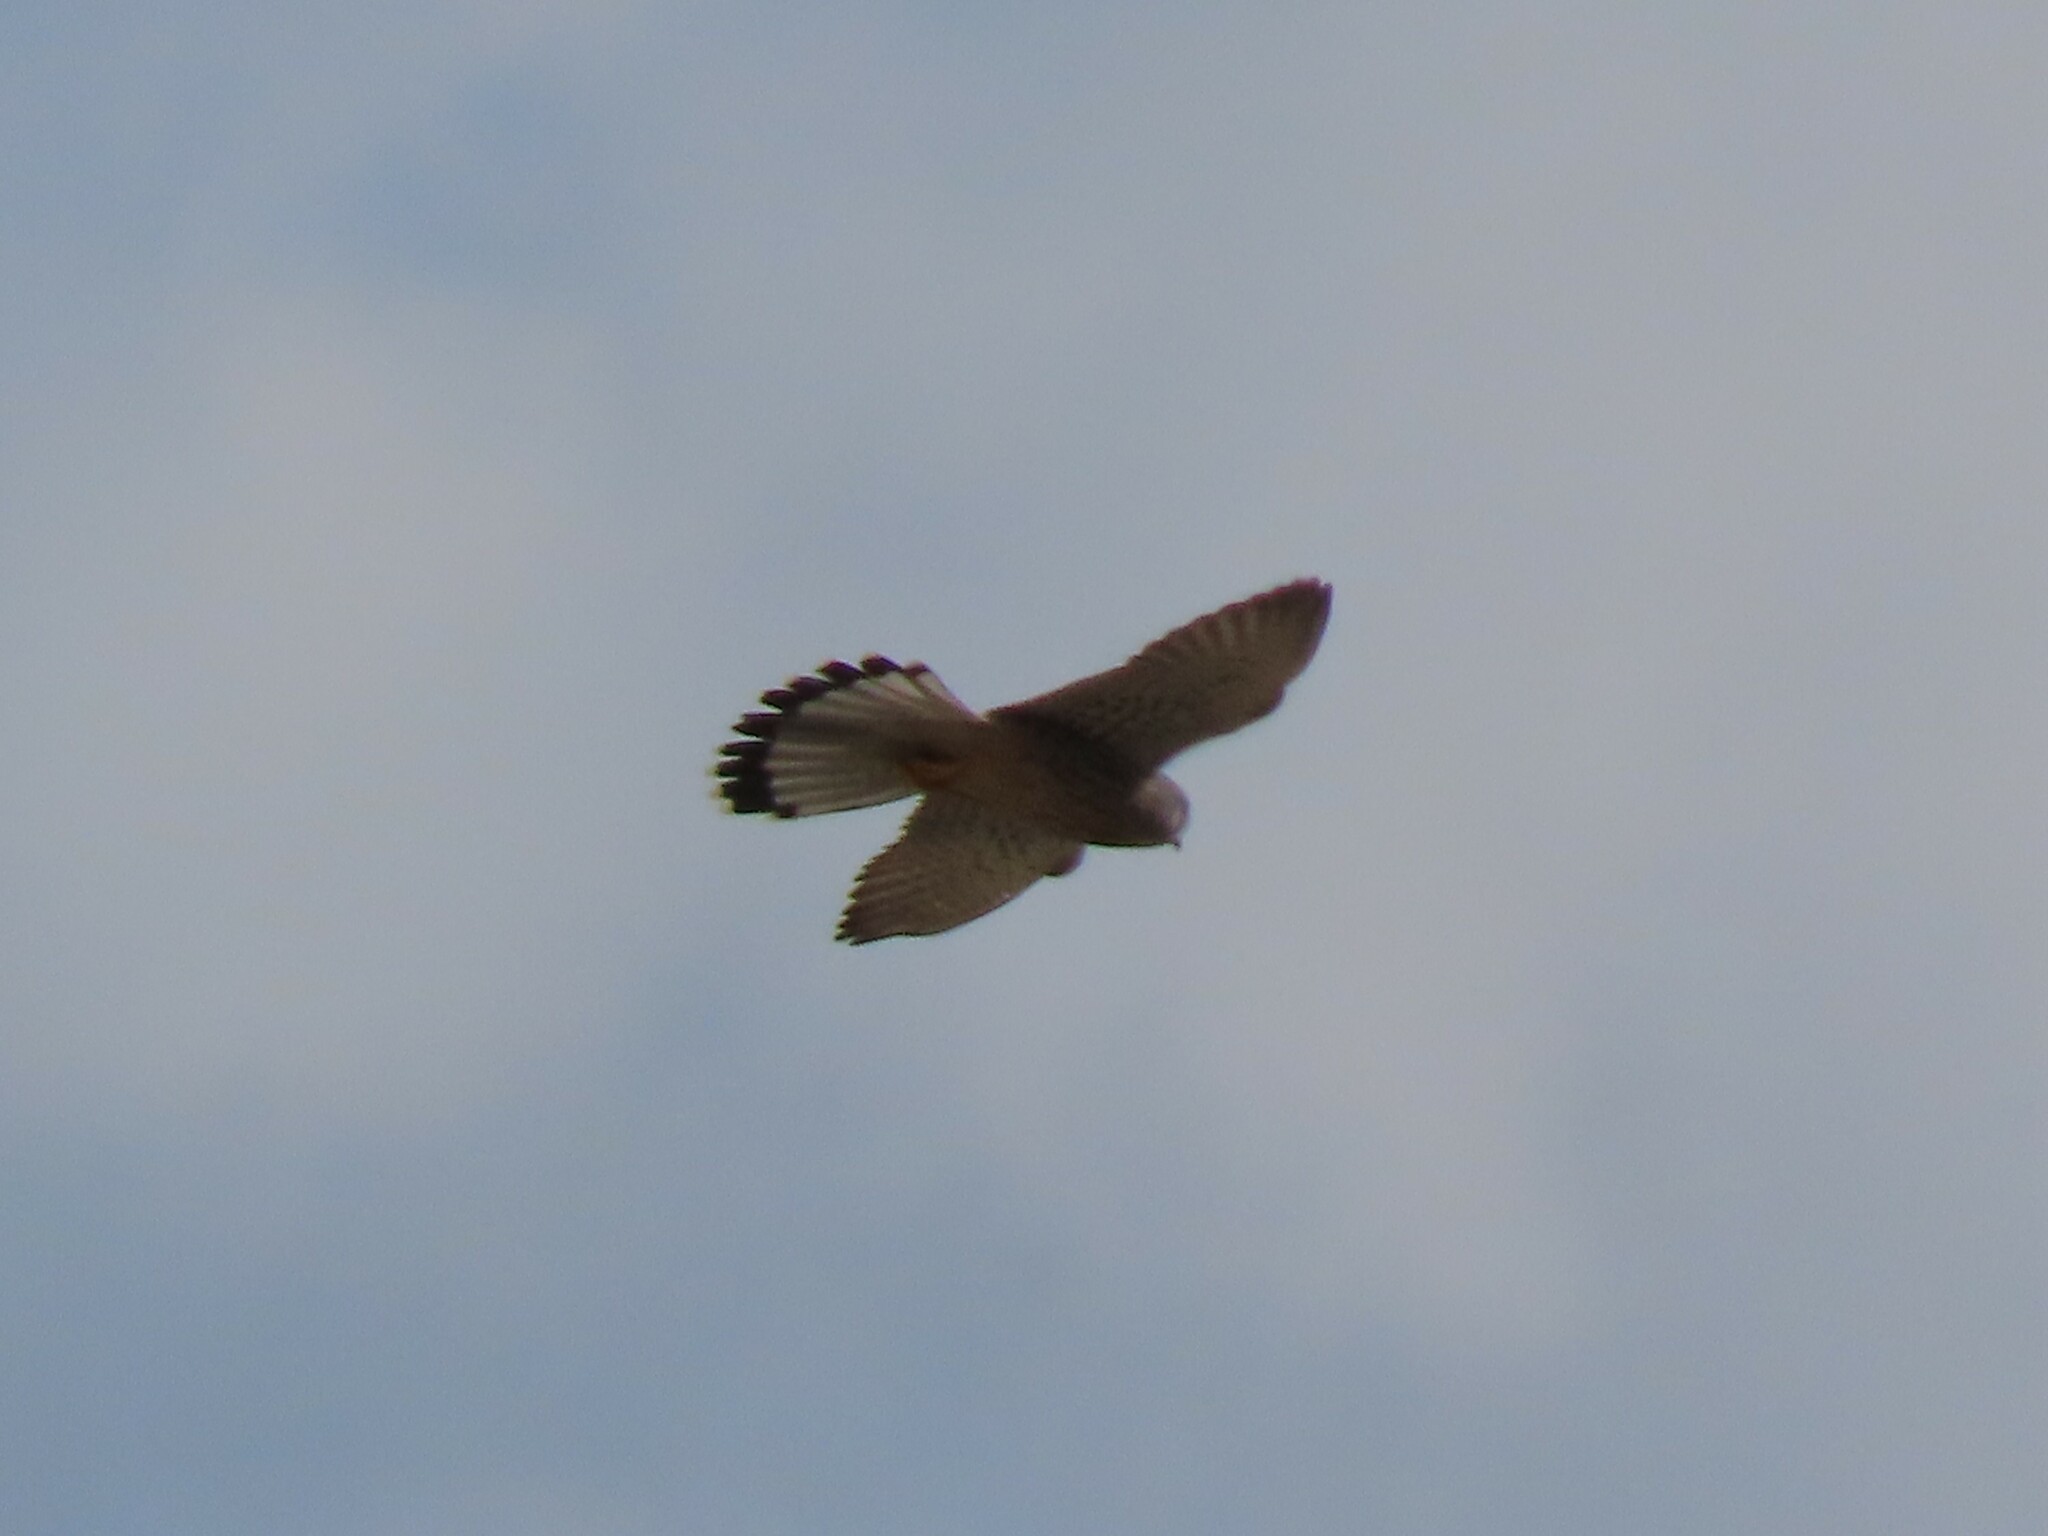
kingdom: Animalia
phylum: Chordata
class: Aves
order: Falconiformes
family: Falconidae
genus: Falco
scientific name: Falco tinnunculus
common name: Common kestrel
